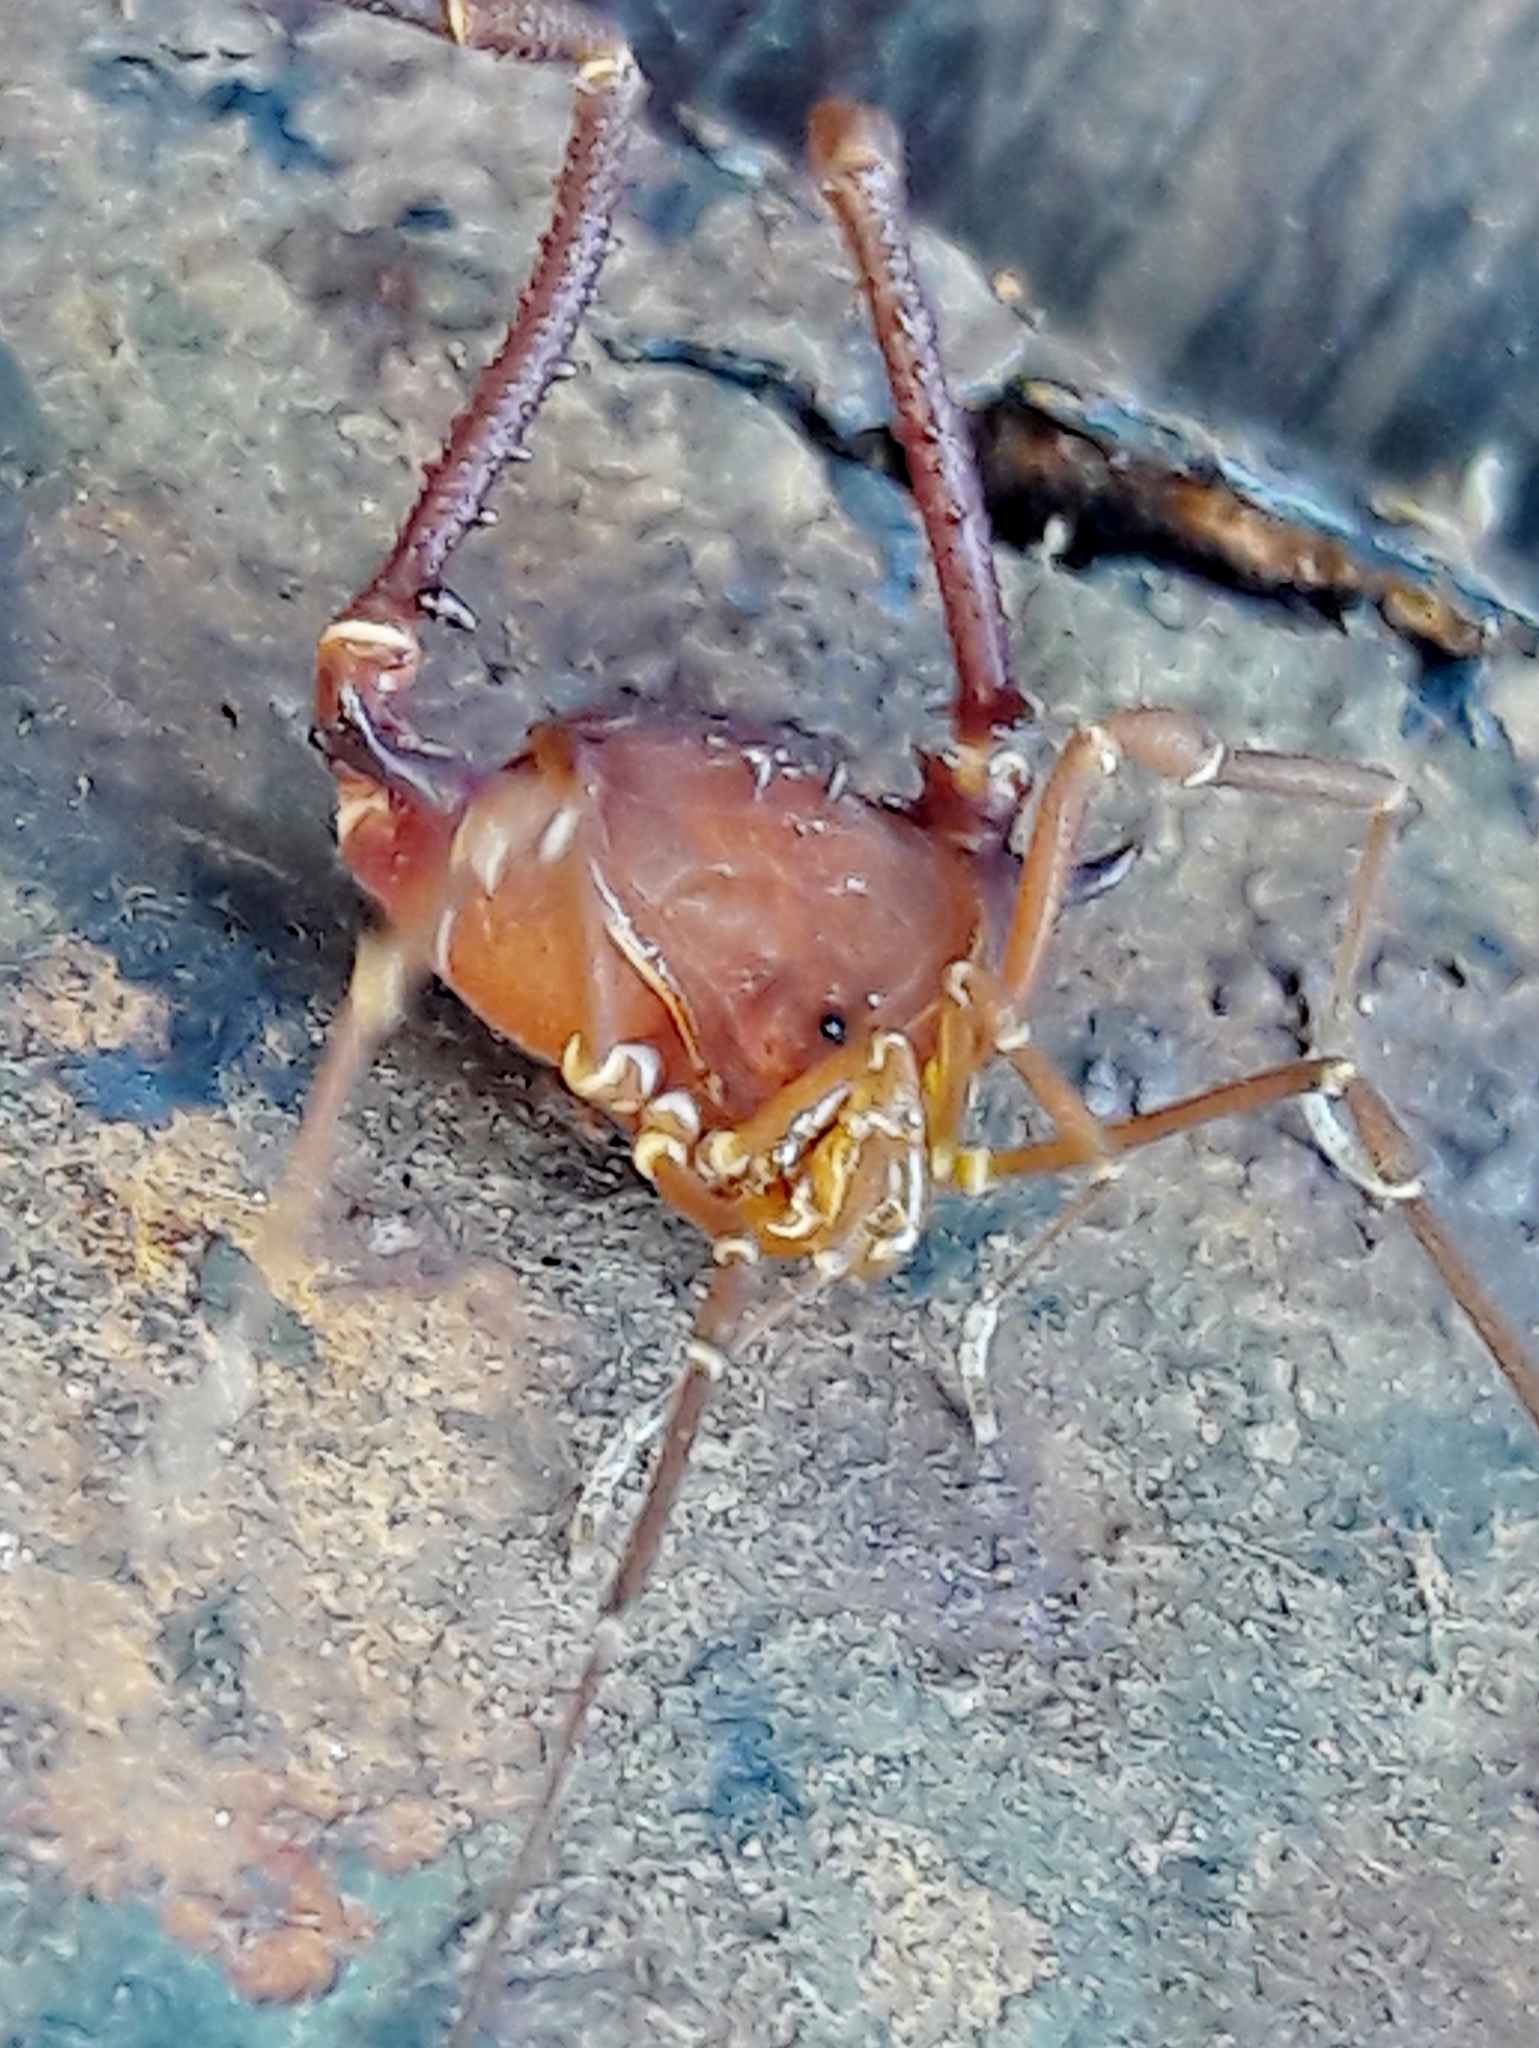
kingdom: Animalia
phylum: Arthropoda
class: Arachnida
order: Opiliones
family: Gonyleptidae
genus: Krateromaspis
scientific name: Krateromaspis dilatata
